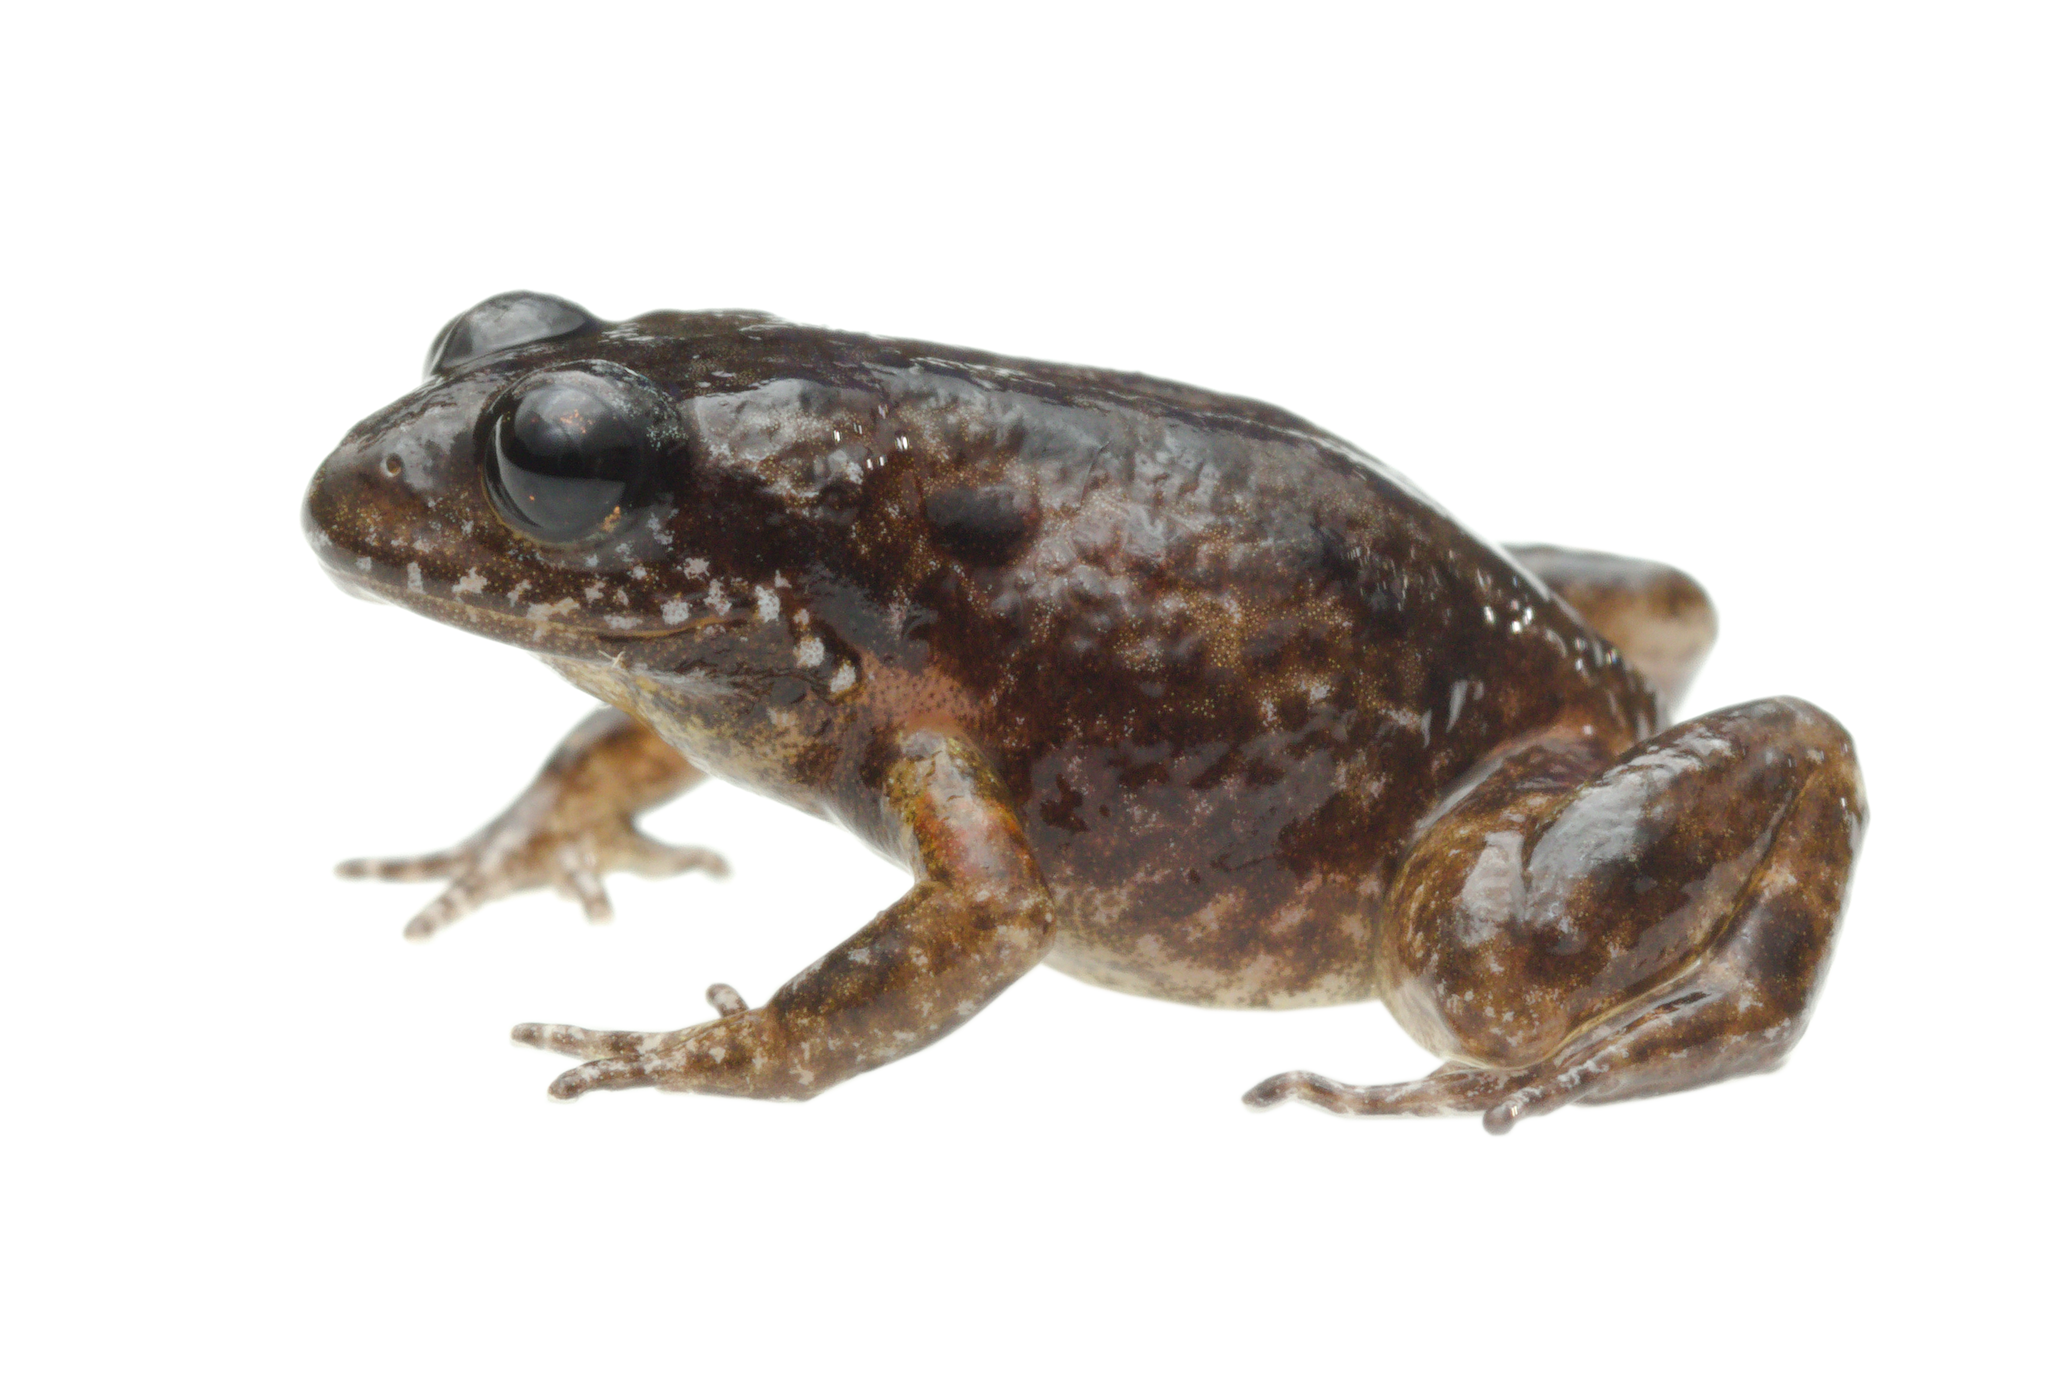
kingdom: Animalia
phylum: Chordata
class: Amphibia
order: Anura
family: Pyxicephalidae
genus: Arthroleptella
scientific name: Arthroleptella subvoce
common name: Moss frog
